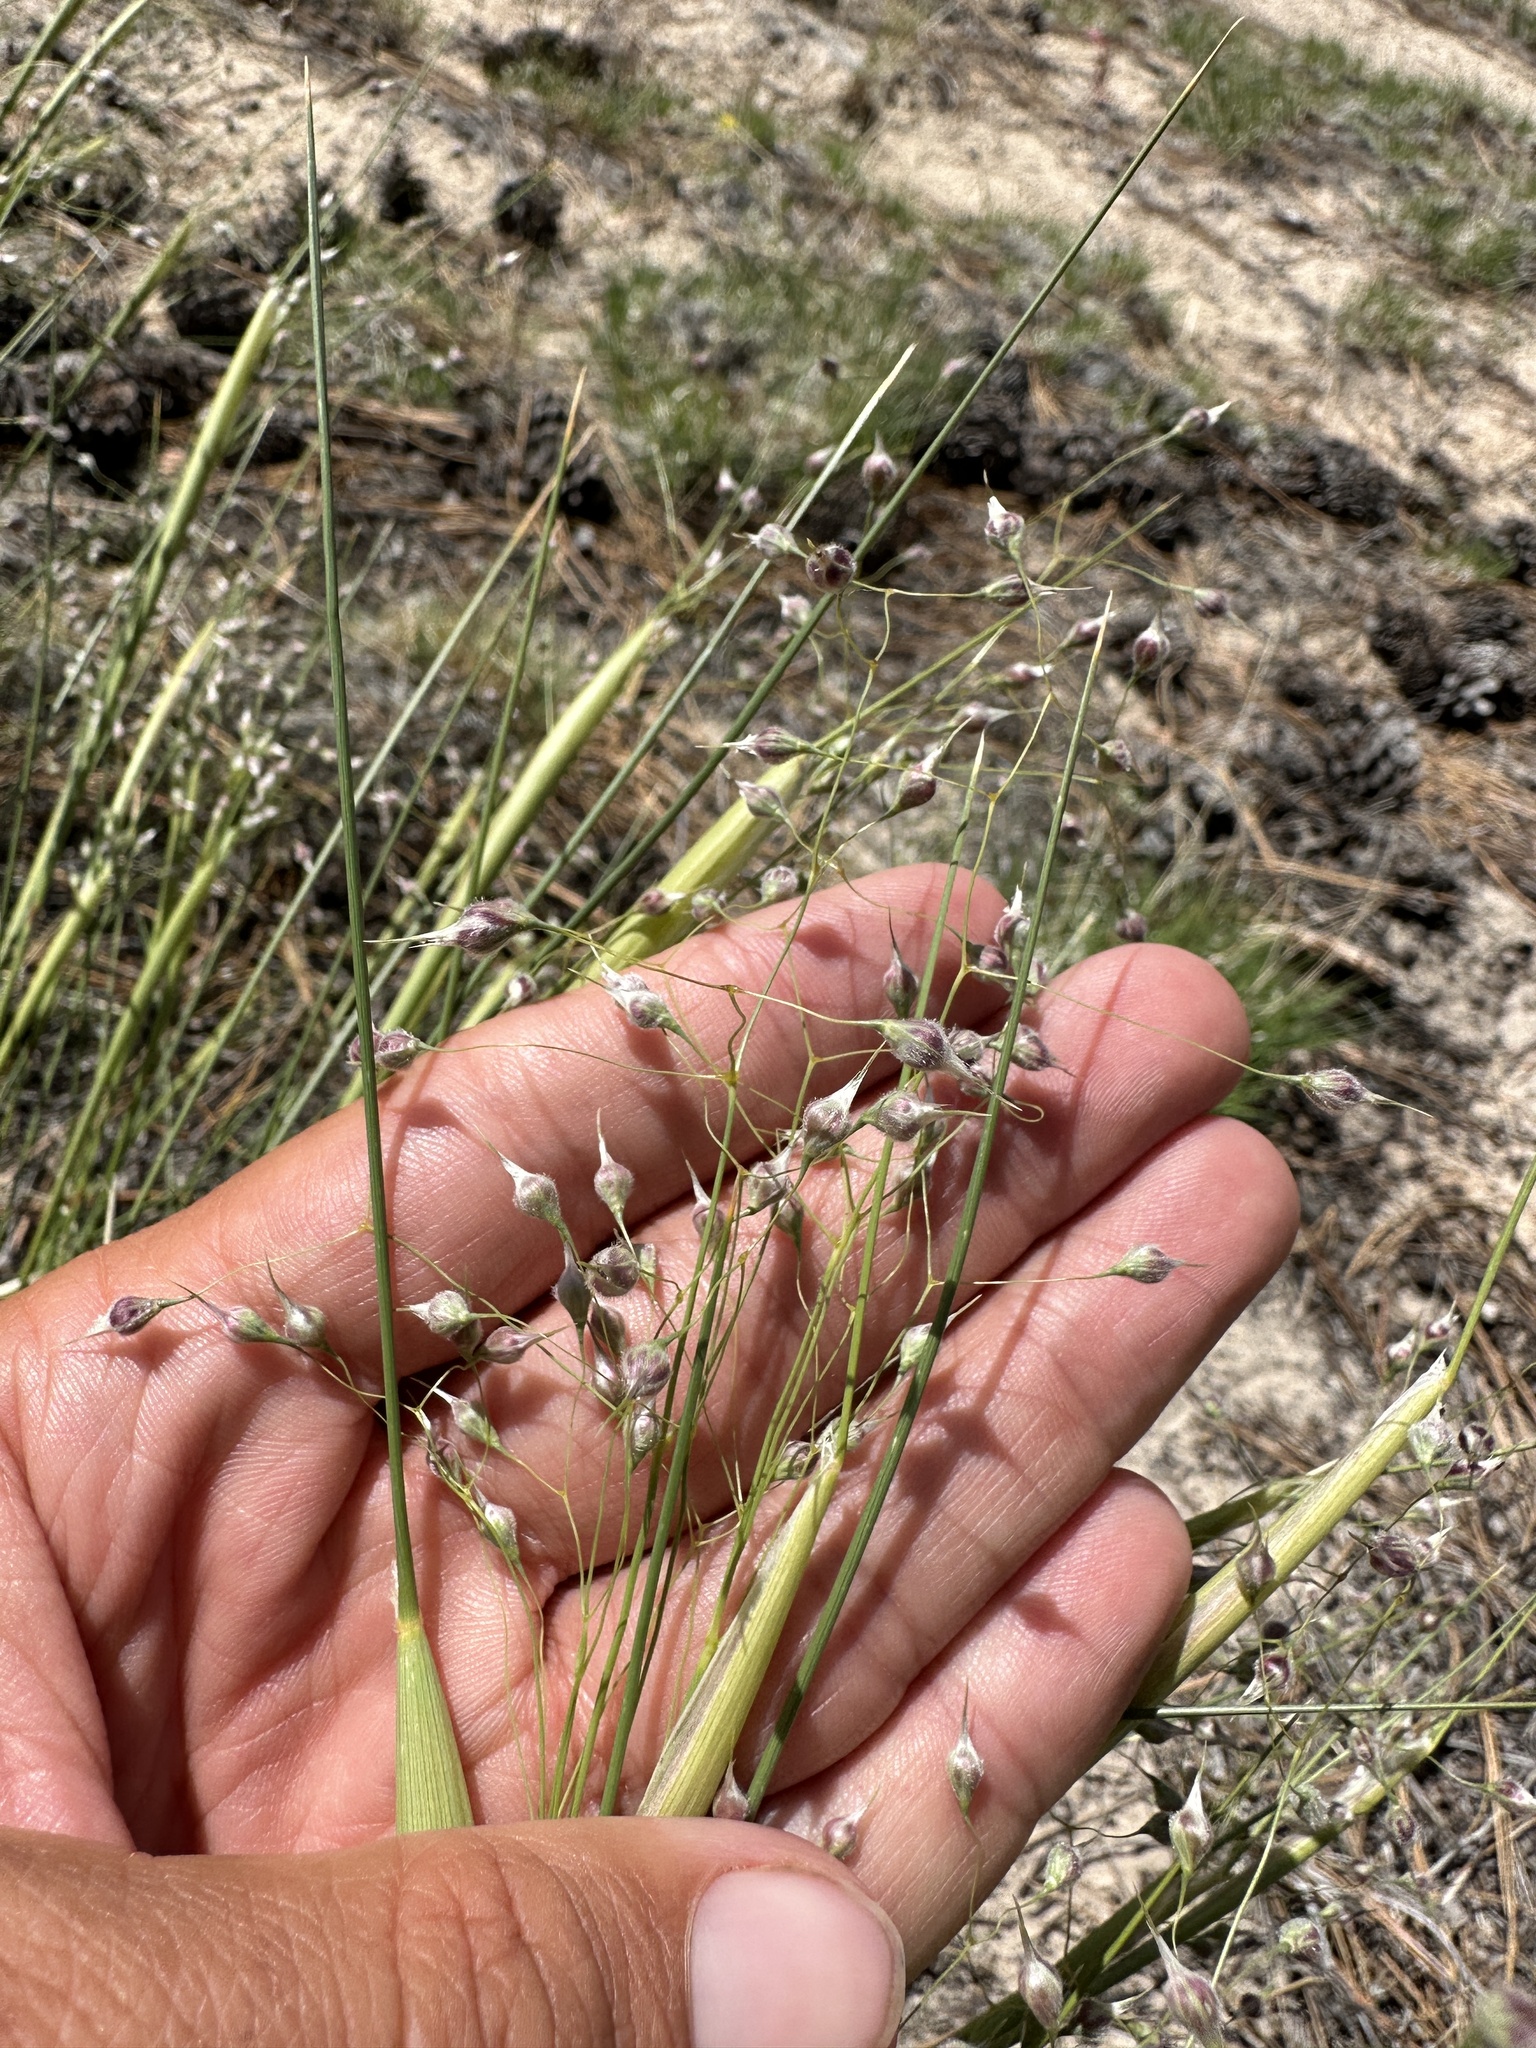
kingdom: Plantae
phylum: Tracheophyta
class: Liliopsida
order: Poales
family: Poaceae
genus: Eriocoma
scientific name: Eriocoma hymenoides
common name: Indian mountain ricegrass
